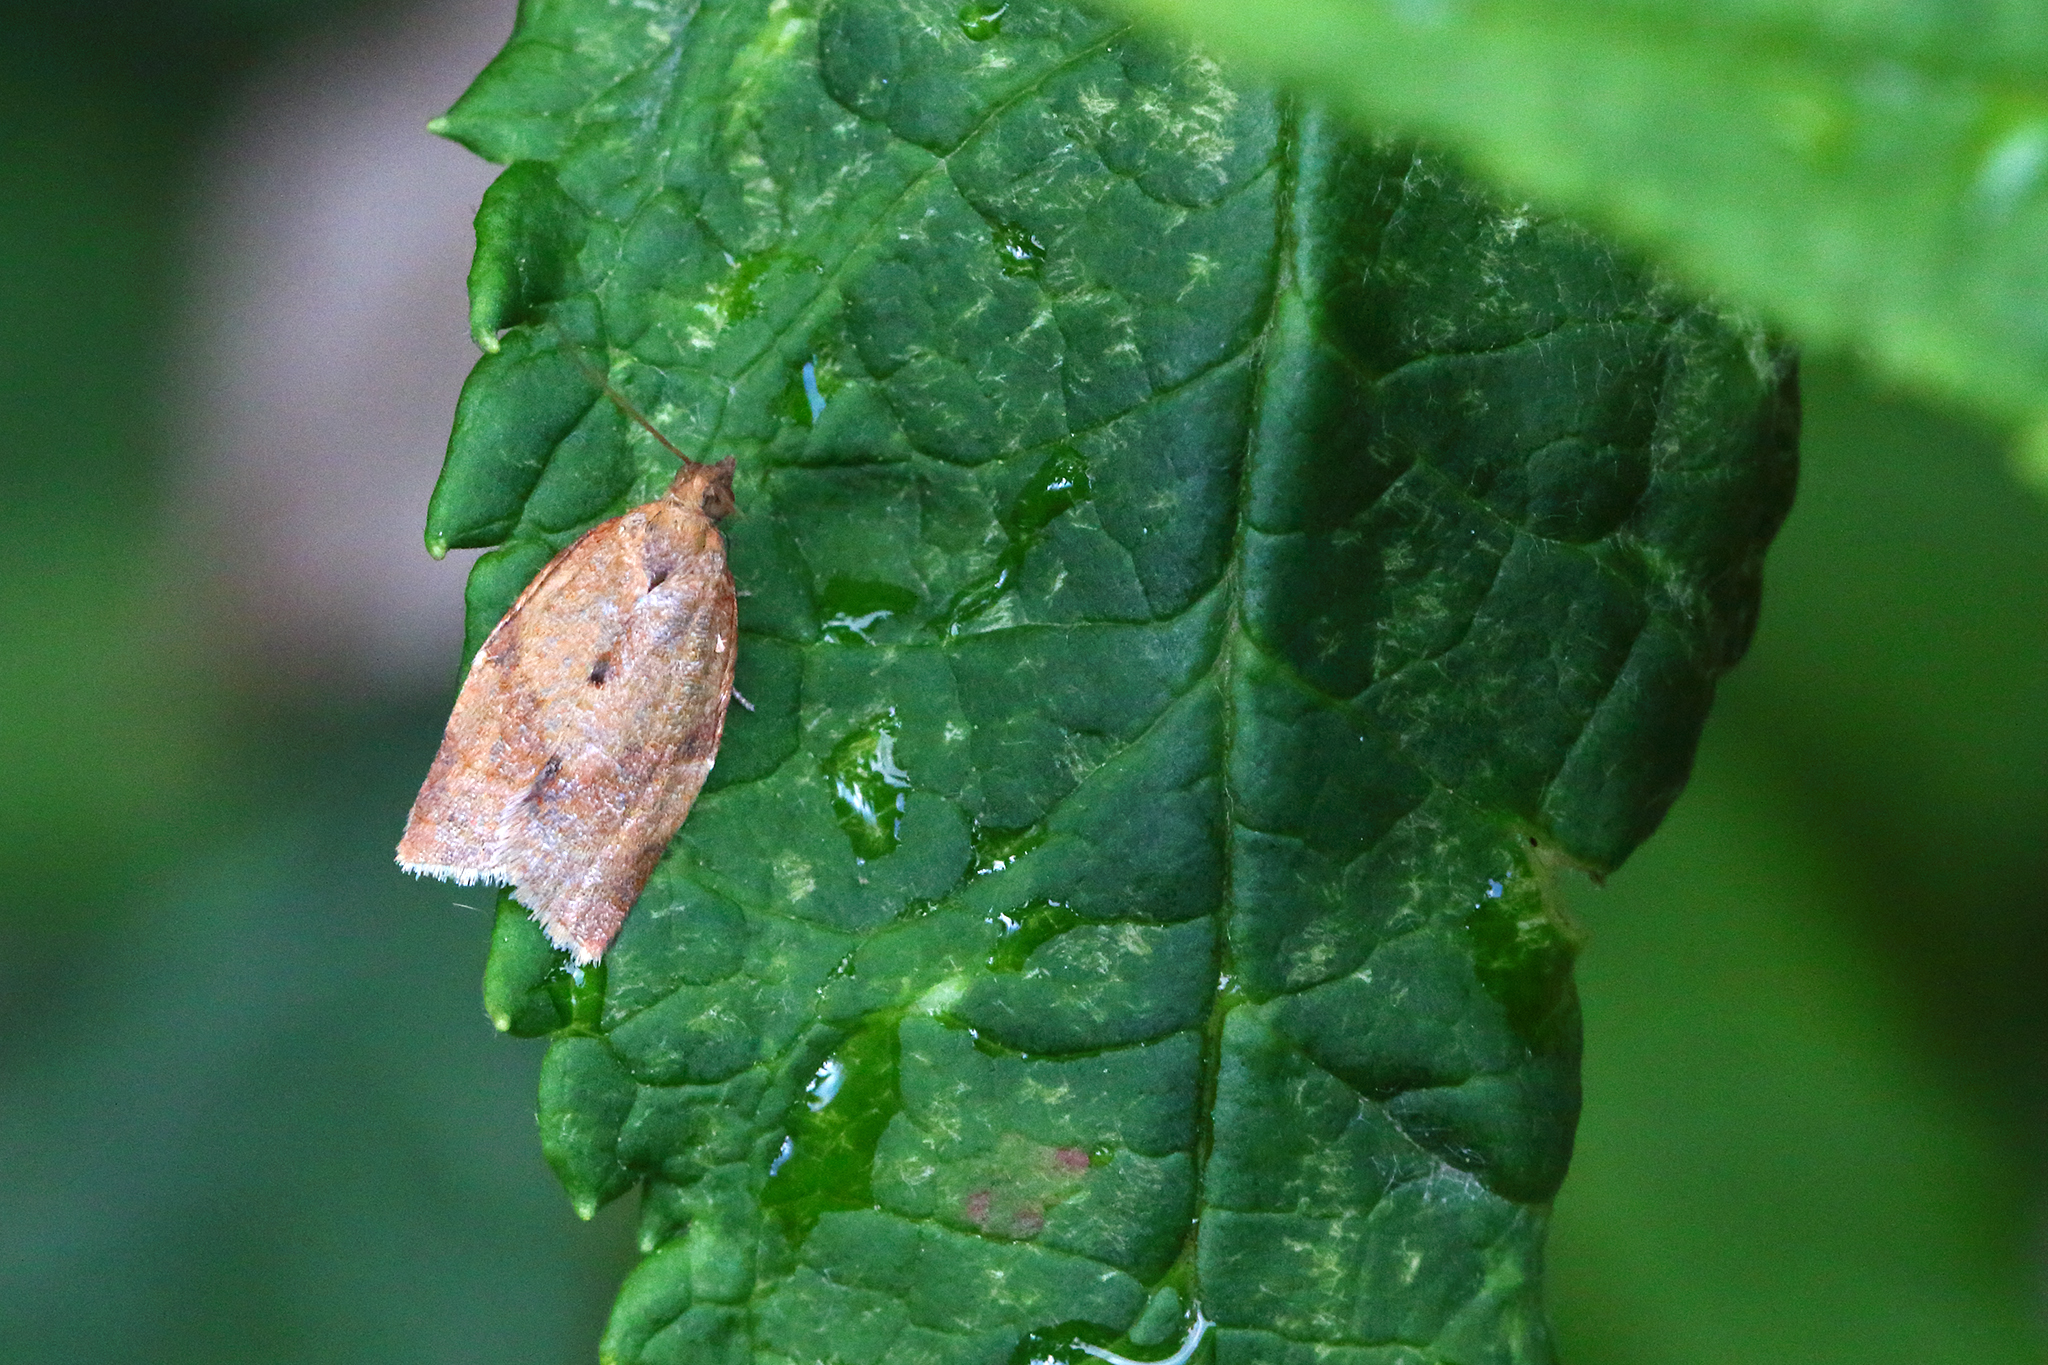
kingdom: Animalia
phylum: Arthropoda
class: Insecta
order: Lepidoptera
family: Tortricidae
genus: Clepsis
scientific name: Clepsis consimilana
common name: Privet tortrix
